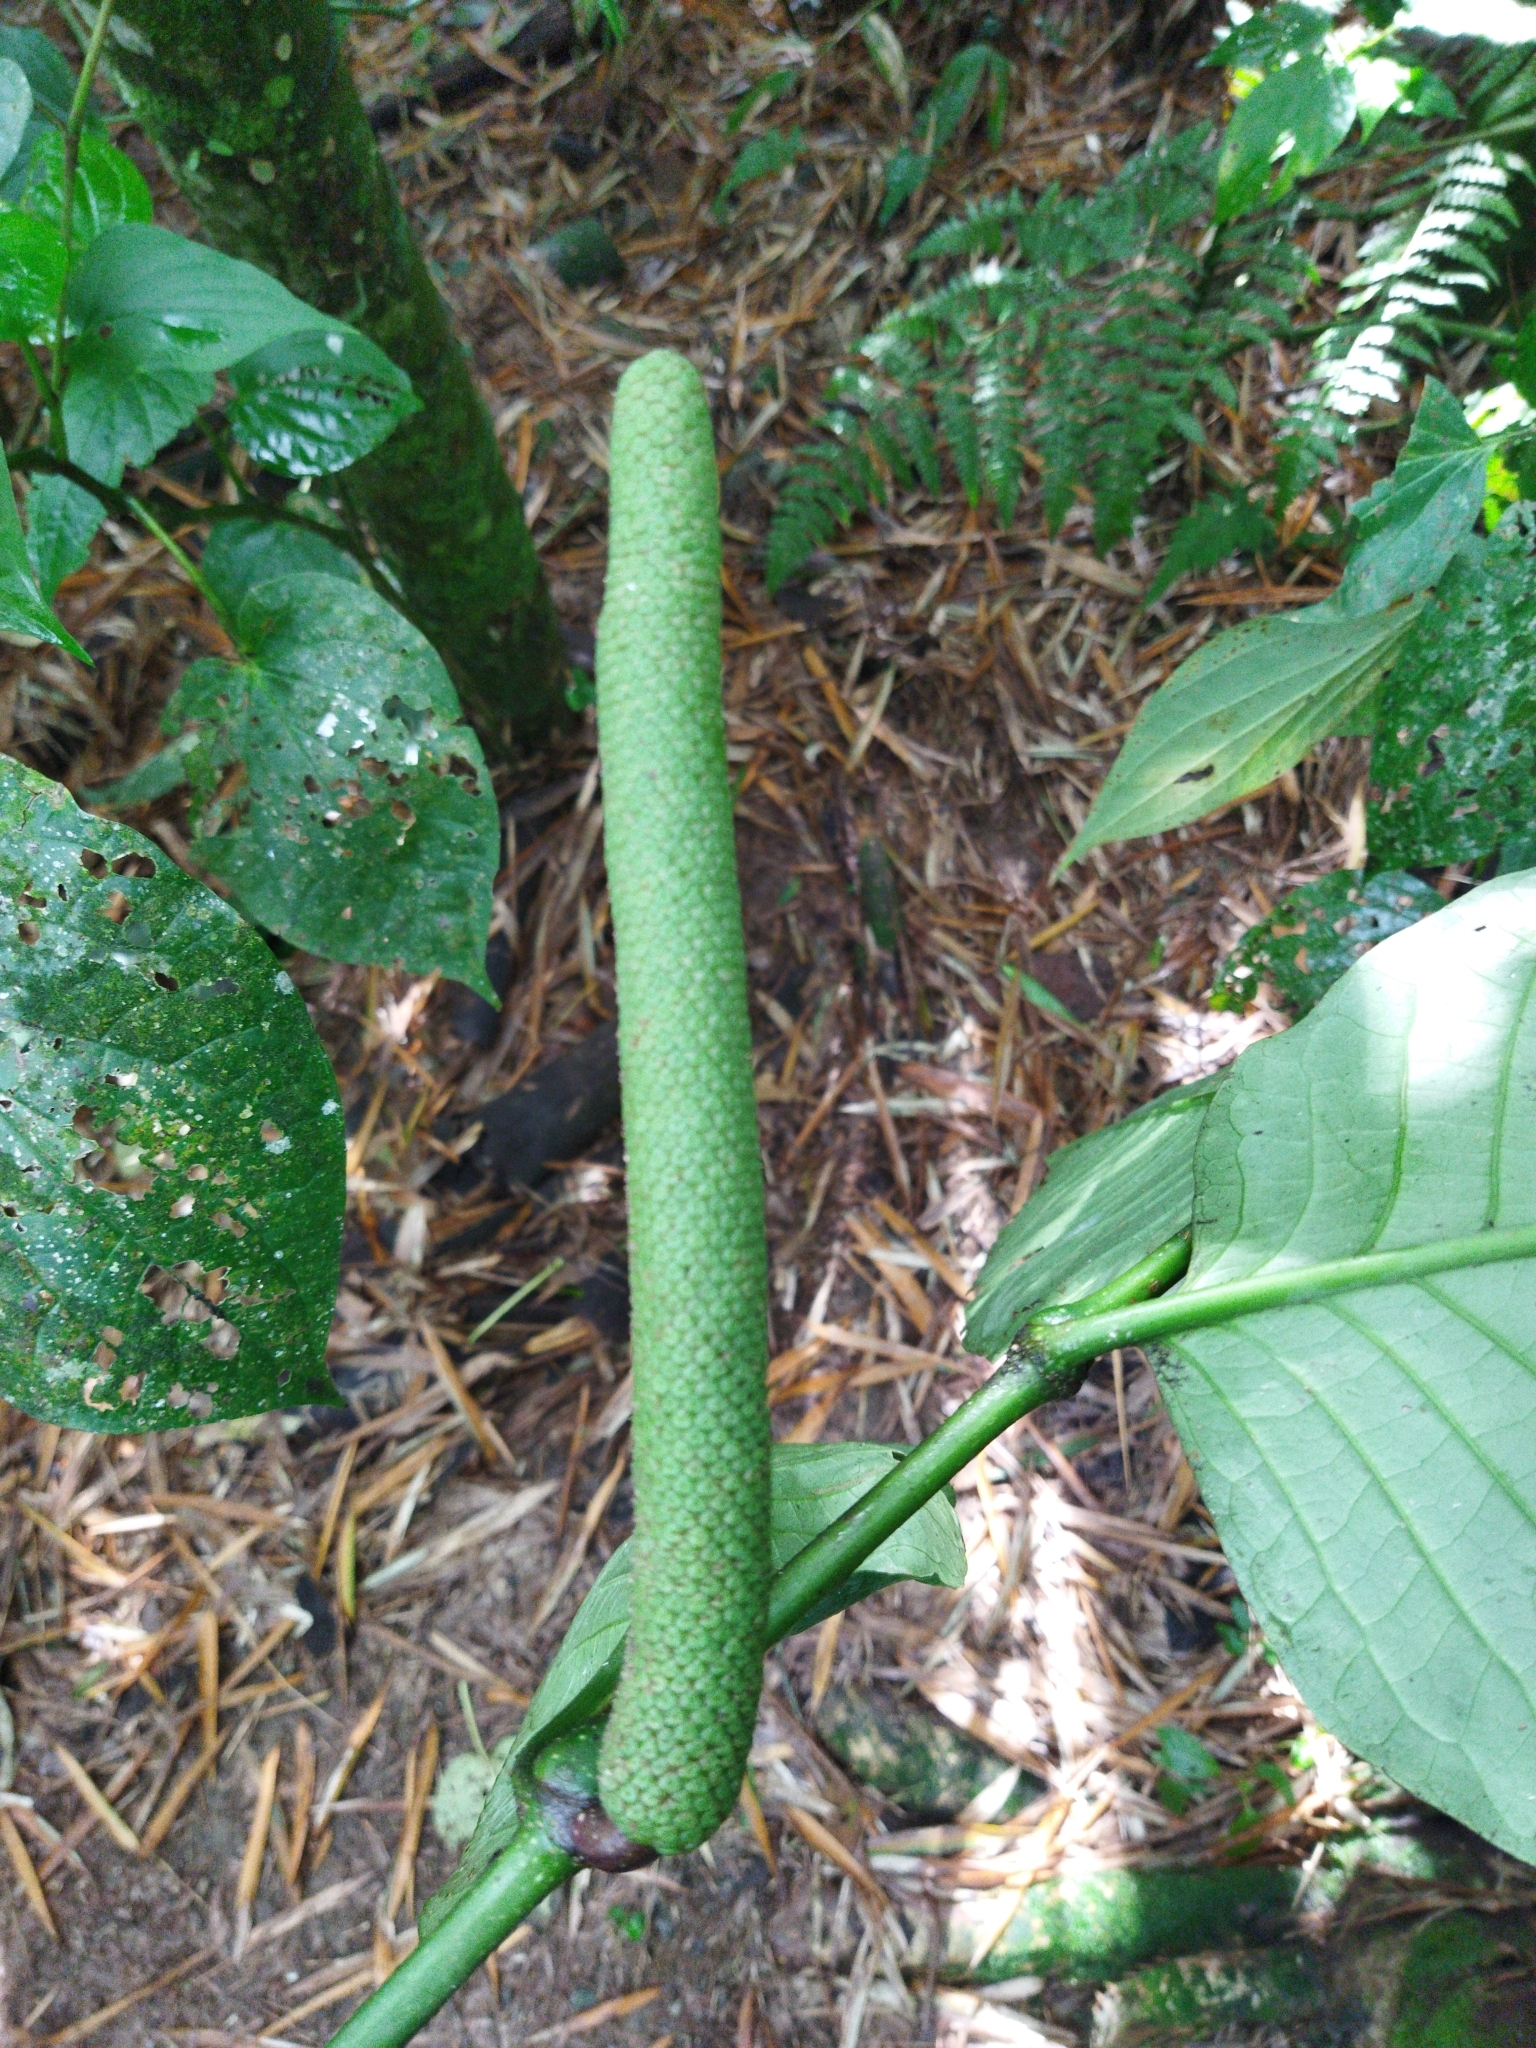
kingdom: Plantae
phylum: Tracheophyta
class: Magnoliopsida
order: Piperales
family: Piperaceae
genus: Piper
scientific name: Piper augustum
